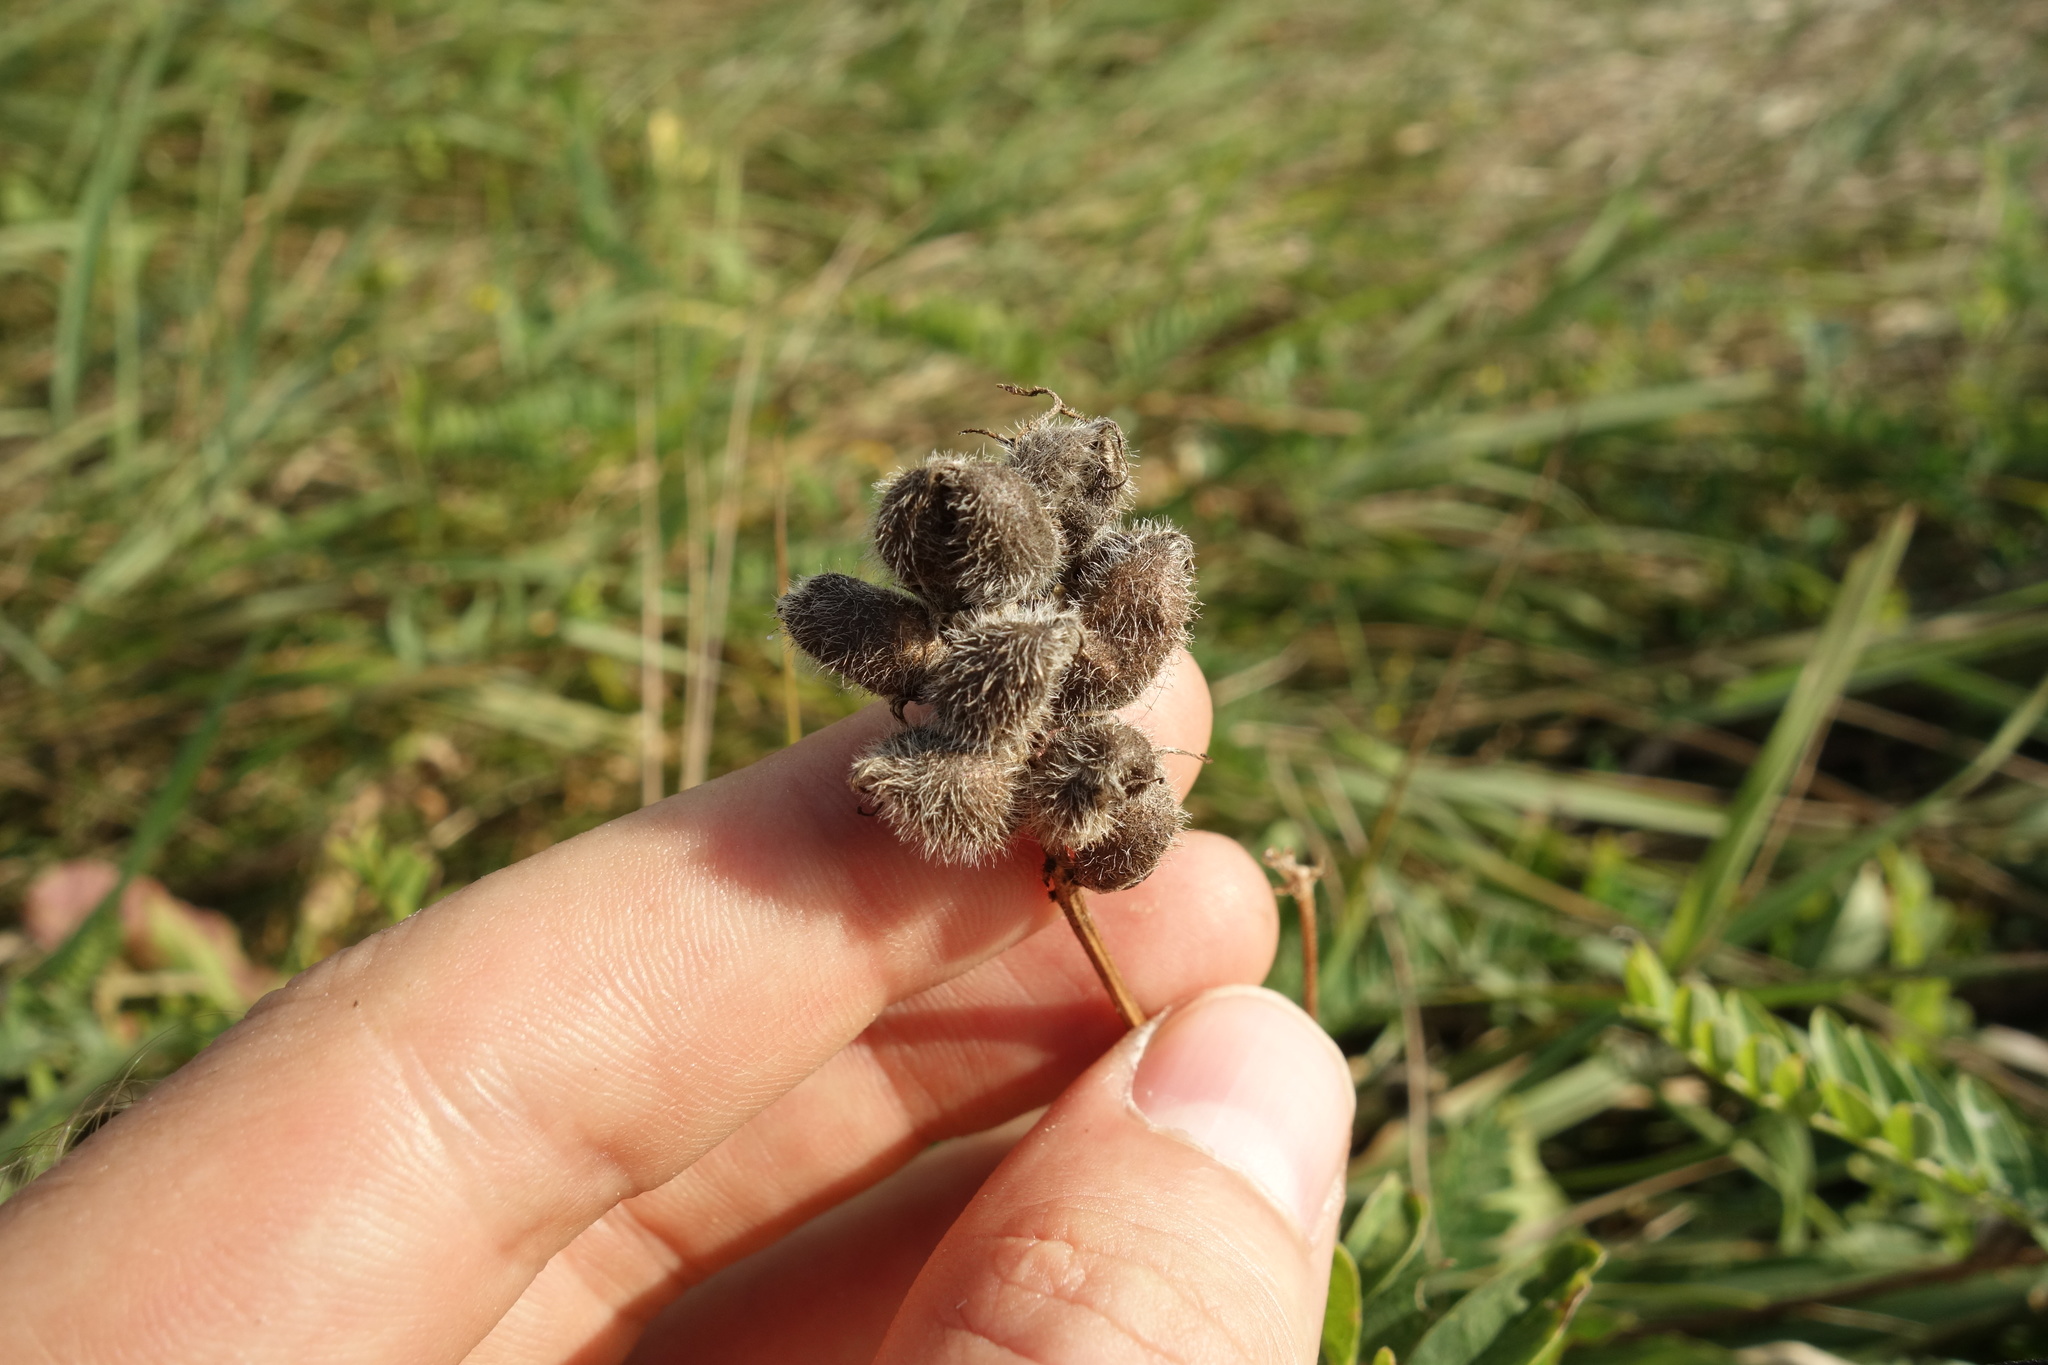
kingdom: Plantae
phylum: Tracheophyta
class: Magnoliopsida
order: Fabales
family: Fabaceae
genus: Astragalus
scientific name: Astragalus cicer
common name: Chick-pea milk-vetch
